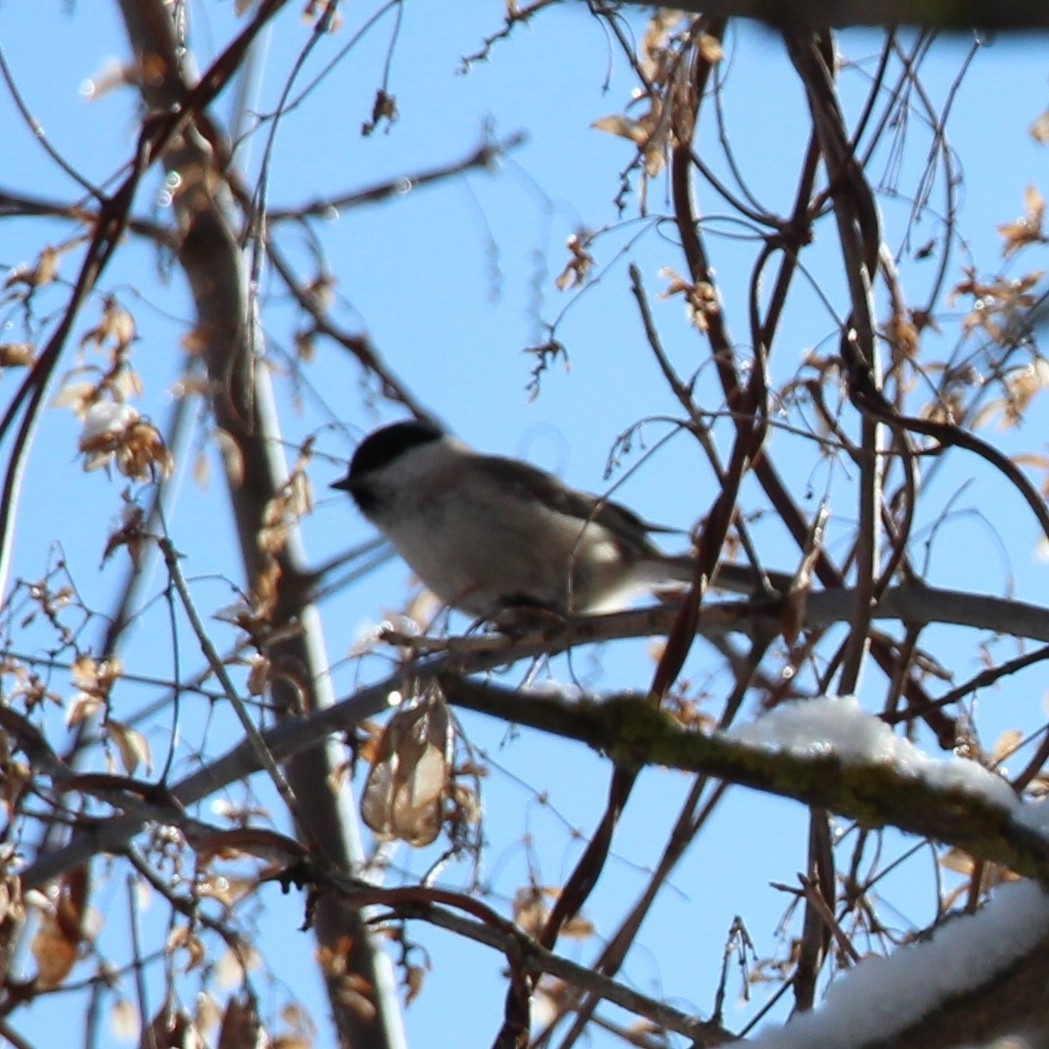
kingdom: Animalia
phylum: Chordata
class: Aves
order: Passeriformes
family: Paridae
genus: Poecile
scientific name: Poecile palustris
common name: Marsh tit
